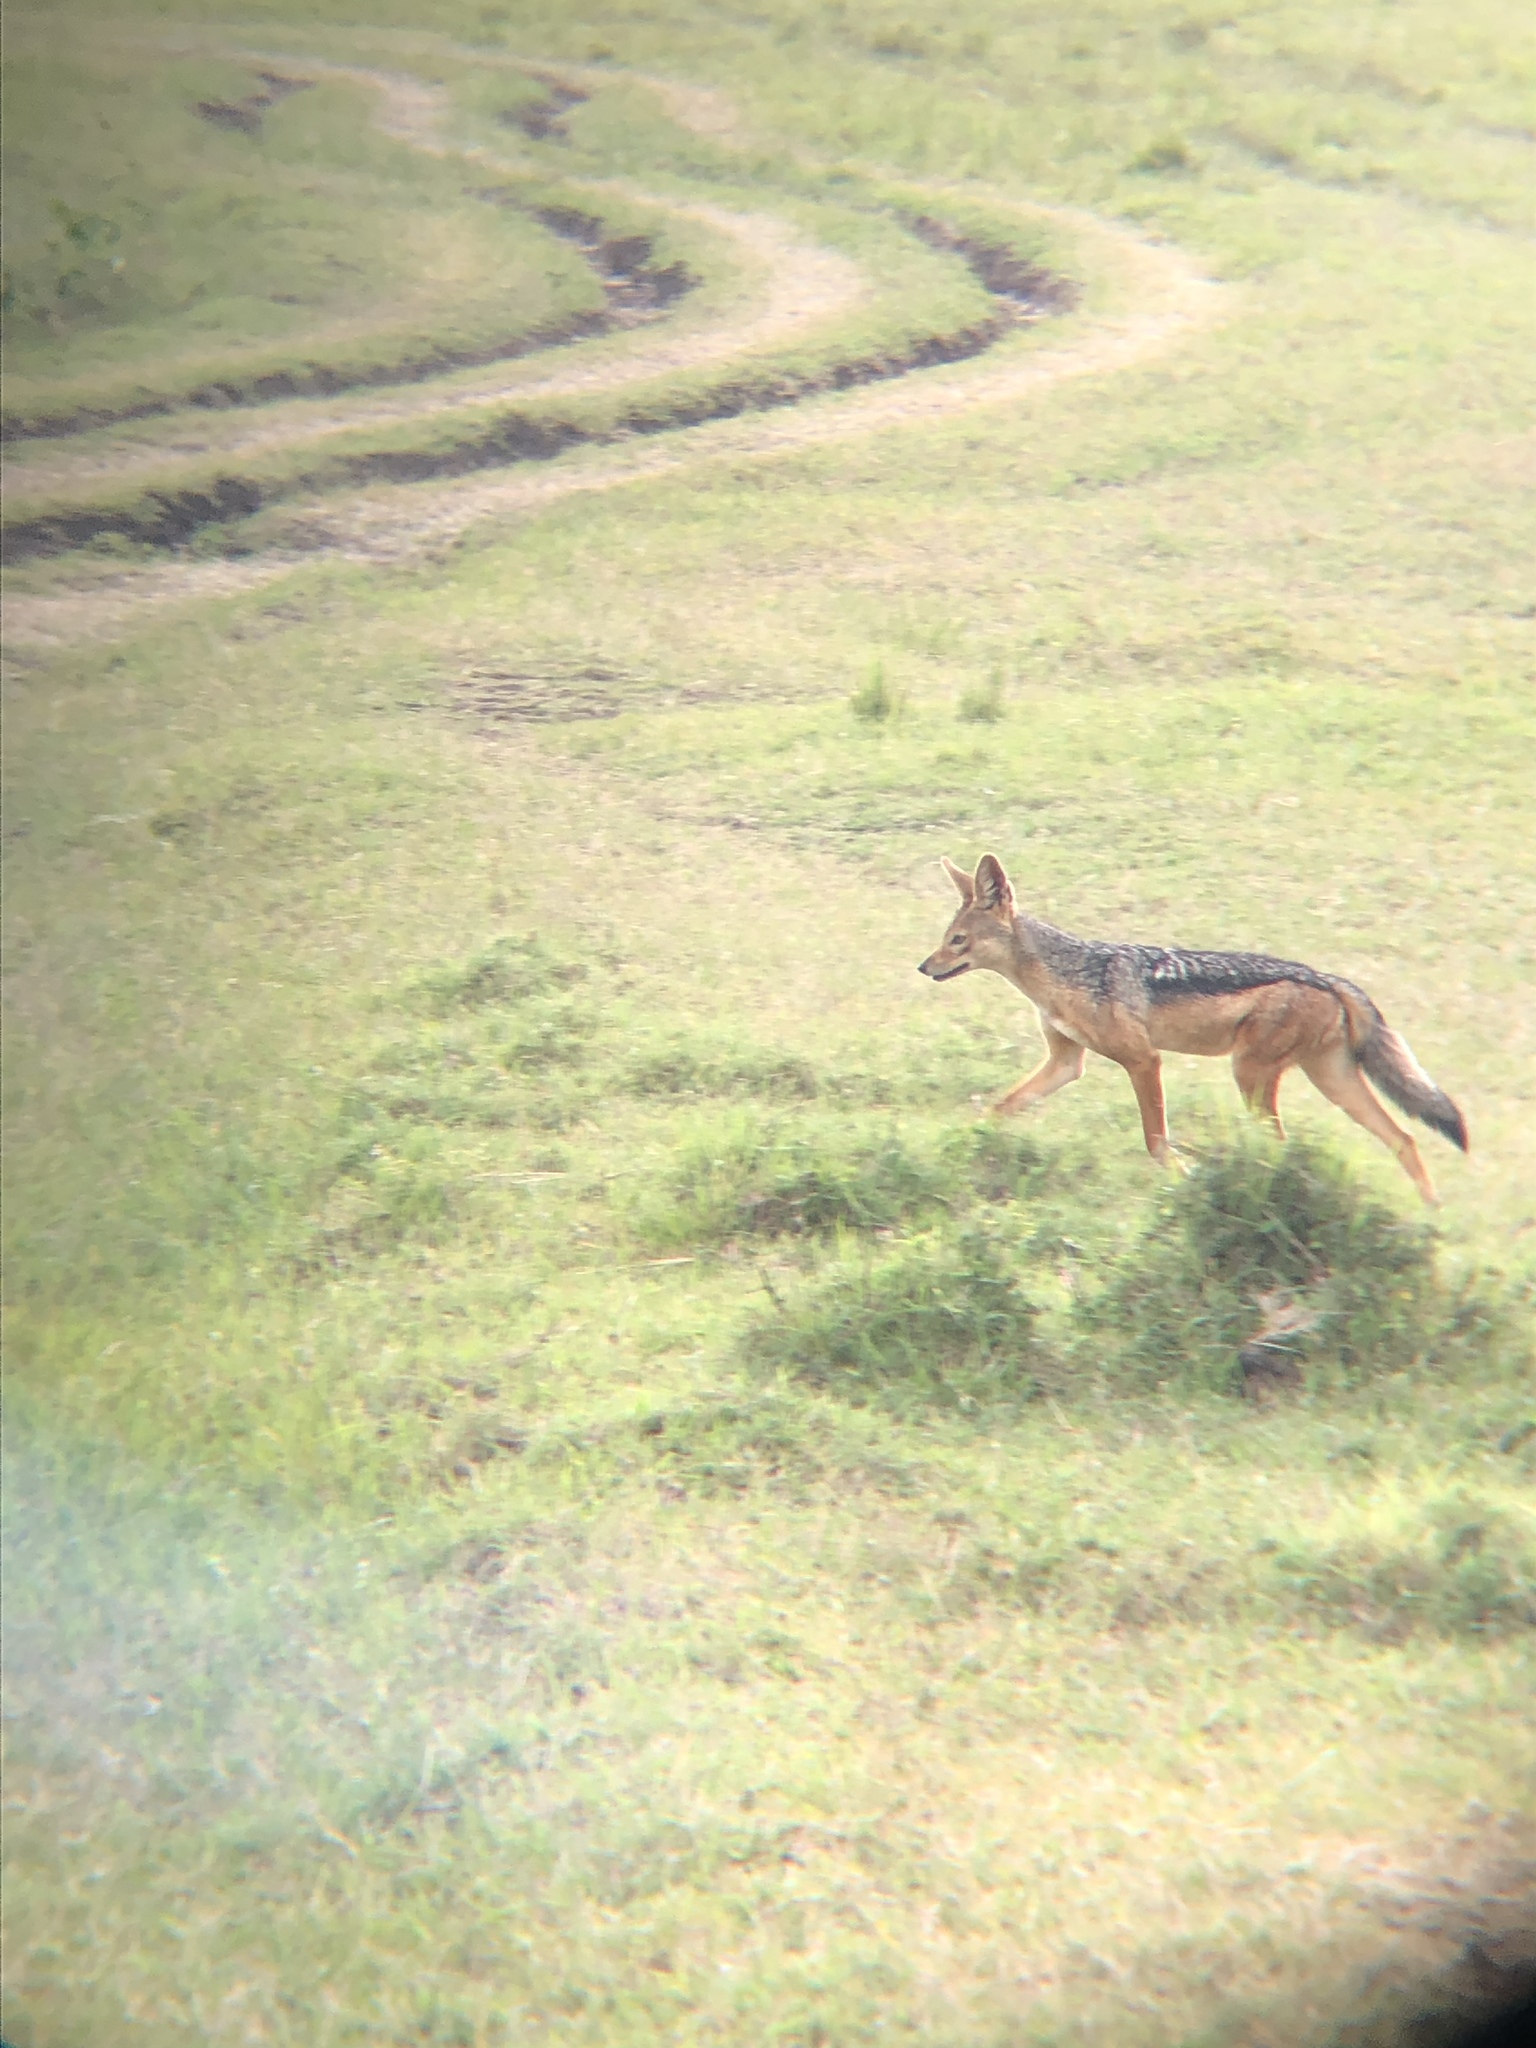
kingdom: Animalia
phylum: Chordata
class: Mammalia
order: Carnivora
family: Canidae
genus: Lupulella
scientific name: Lupulella
